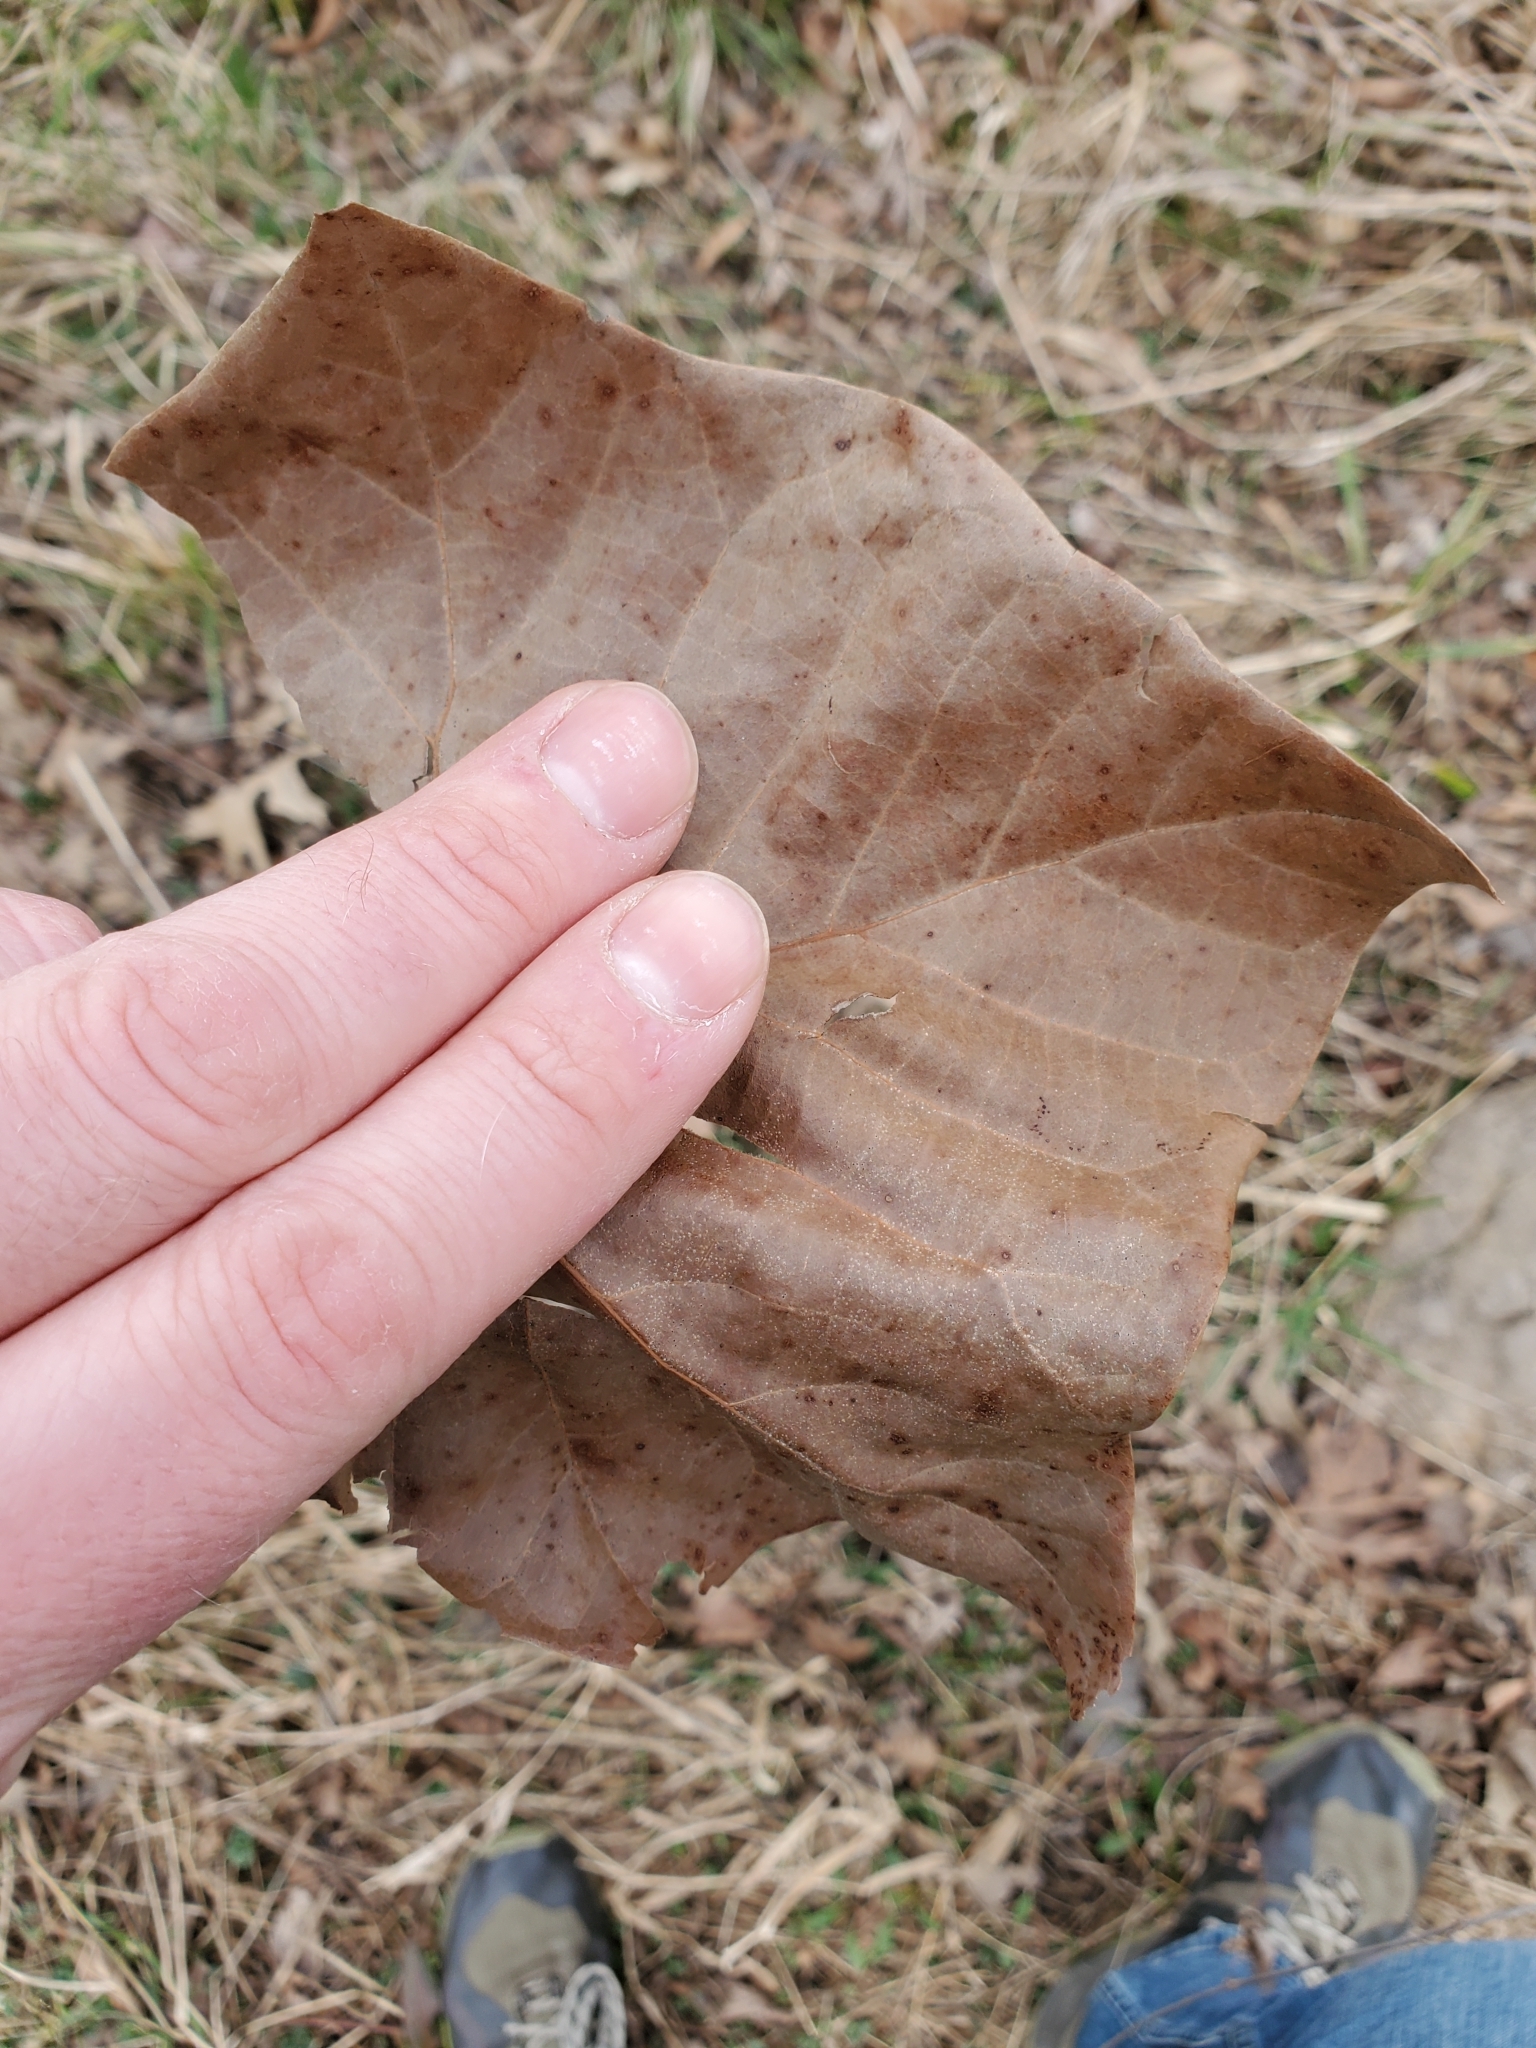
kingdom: Plantae
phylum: Tracheophyta
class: Magnoliopsida
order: Proteales
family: Platanaceae
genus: Platanus
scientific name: Platanus occidentalis
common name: American sycamore
